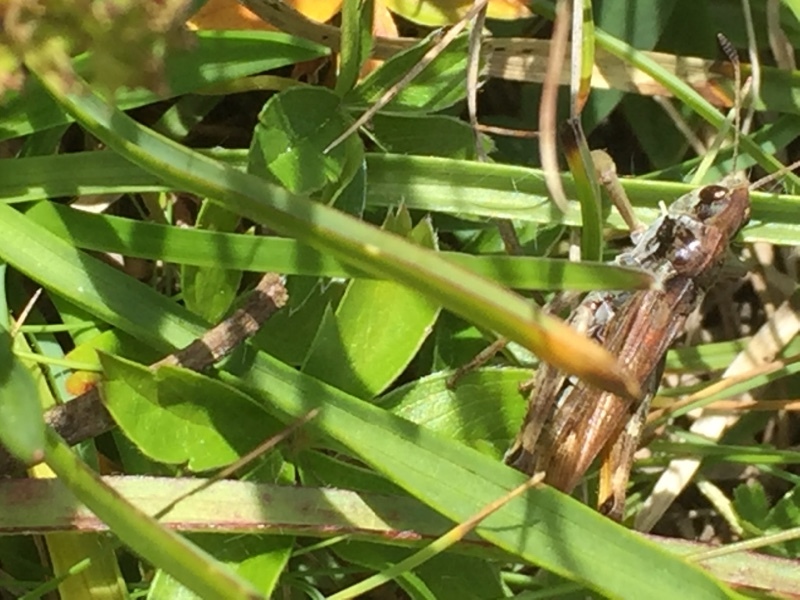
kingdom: Animalia
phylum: Arthropoda
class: Insecta
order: Orthoptera
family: Acrididae
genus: Gomphocerus
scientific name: Gomphocerus sibiricus
